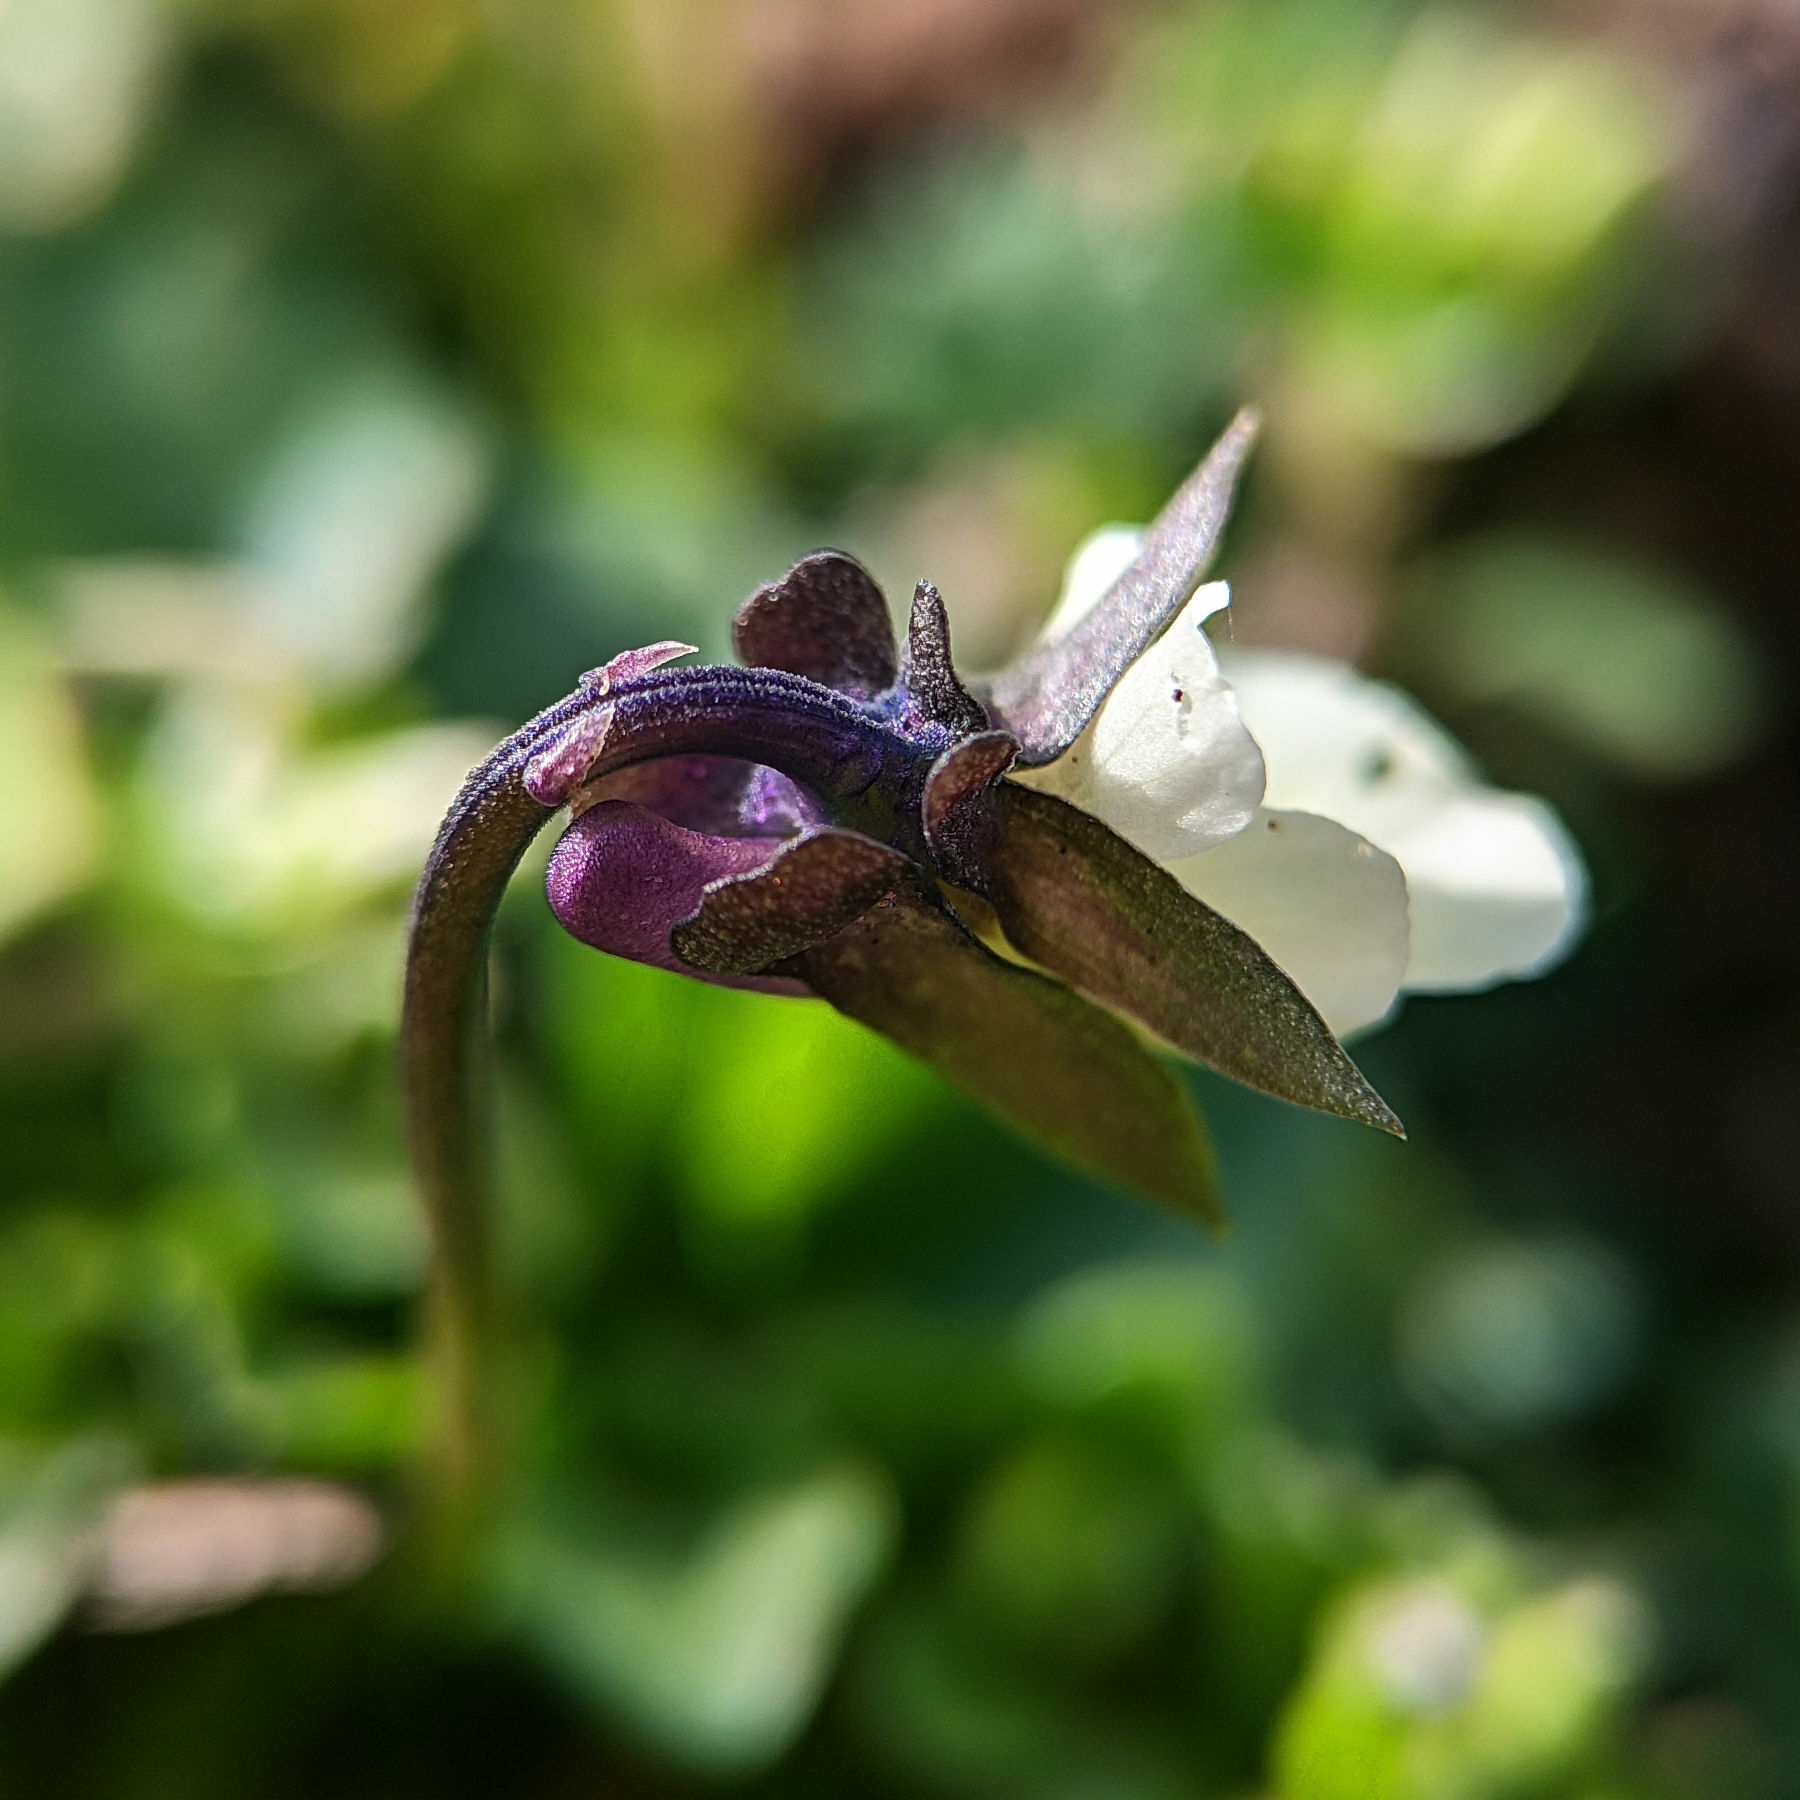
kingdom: Plantae
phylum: Tracheophyta
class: Magnoliopsida
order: Malpighiales
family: Violaceae
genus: Viola
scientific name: Viola arvensis
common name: Field pansy
